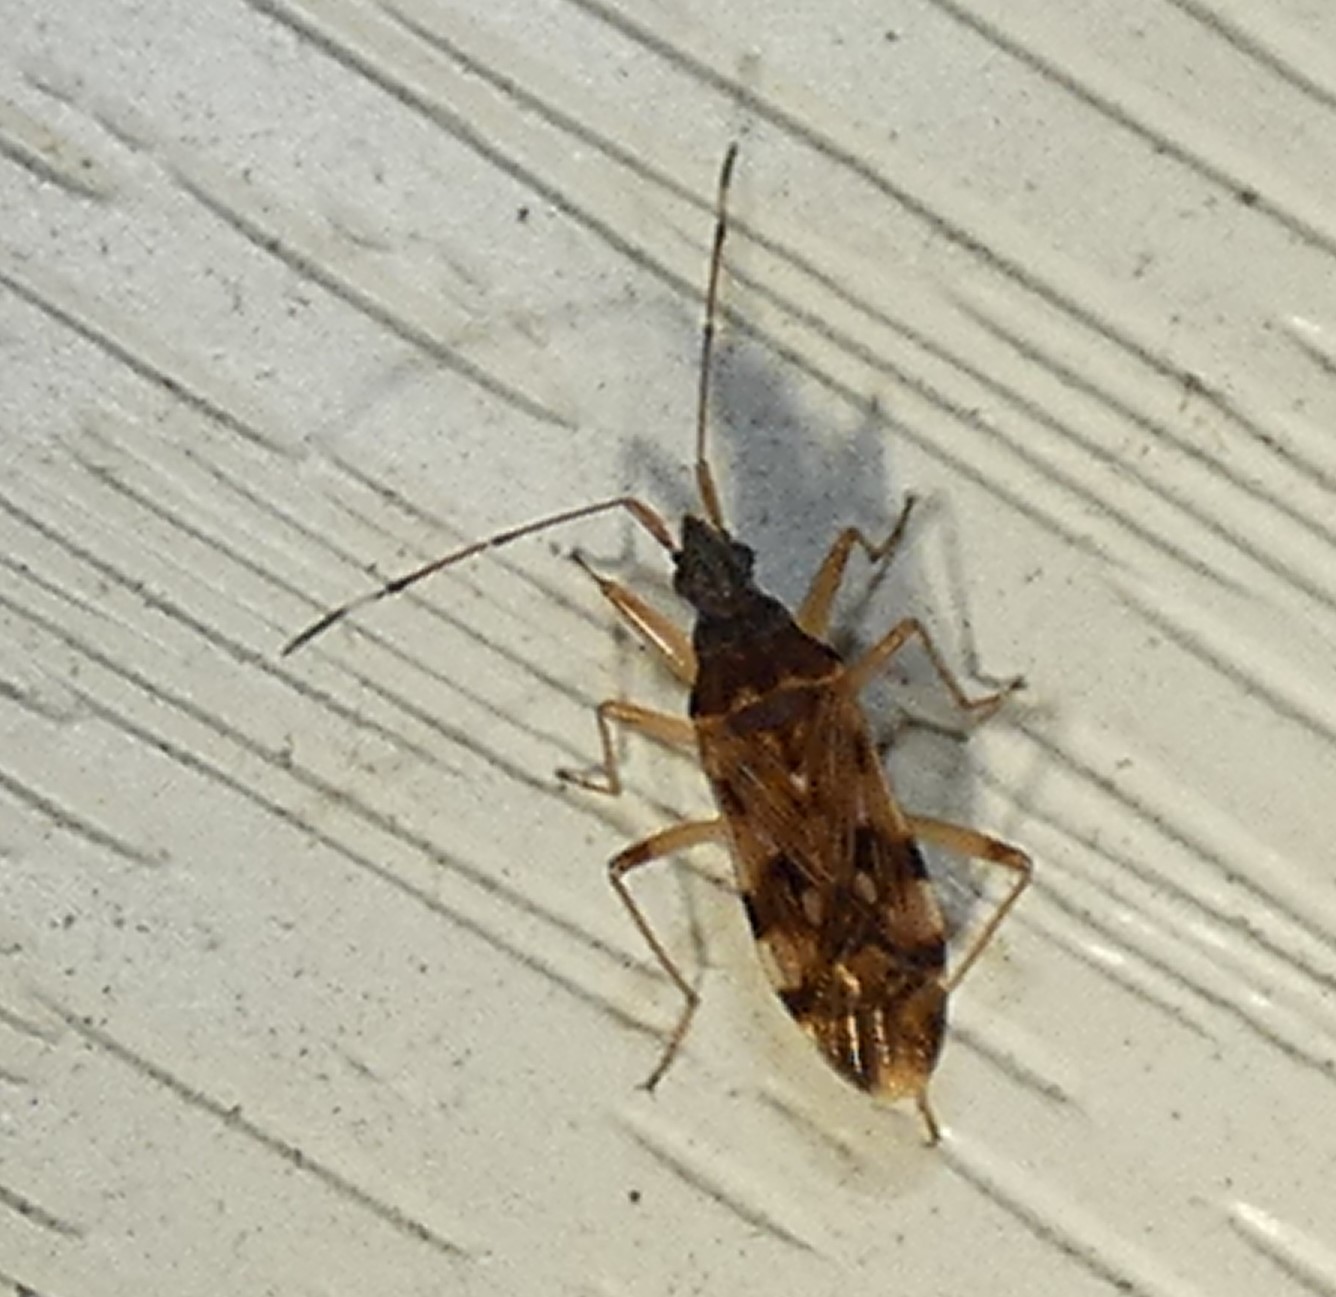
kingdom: Animalia
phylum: Arthropoda
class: Insecta
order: Hemiptera
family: Rhyparochromidae
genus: Ozophora
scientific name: Ozophora picturata
